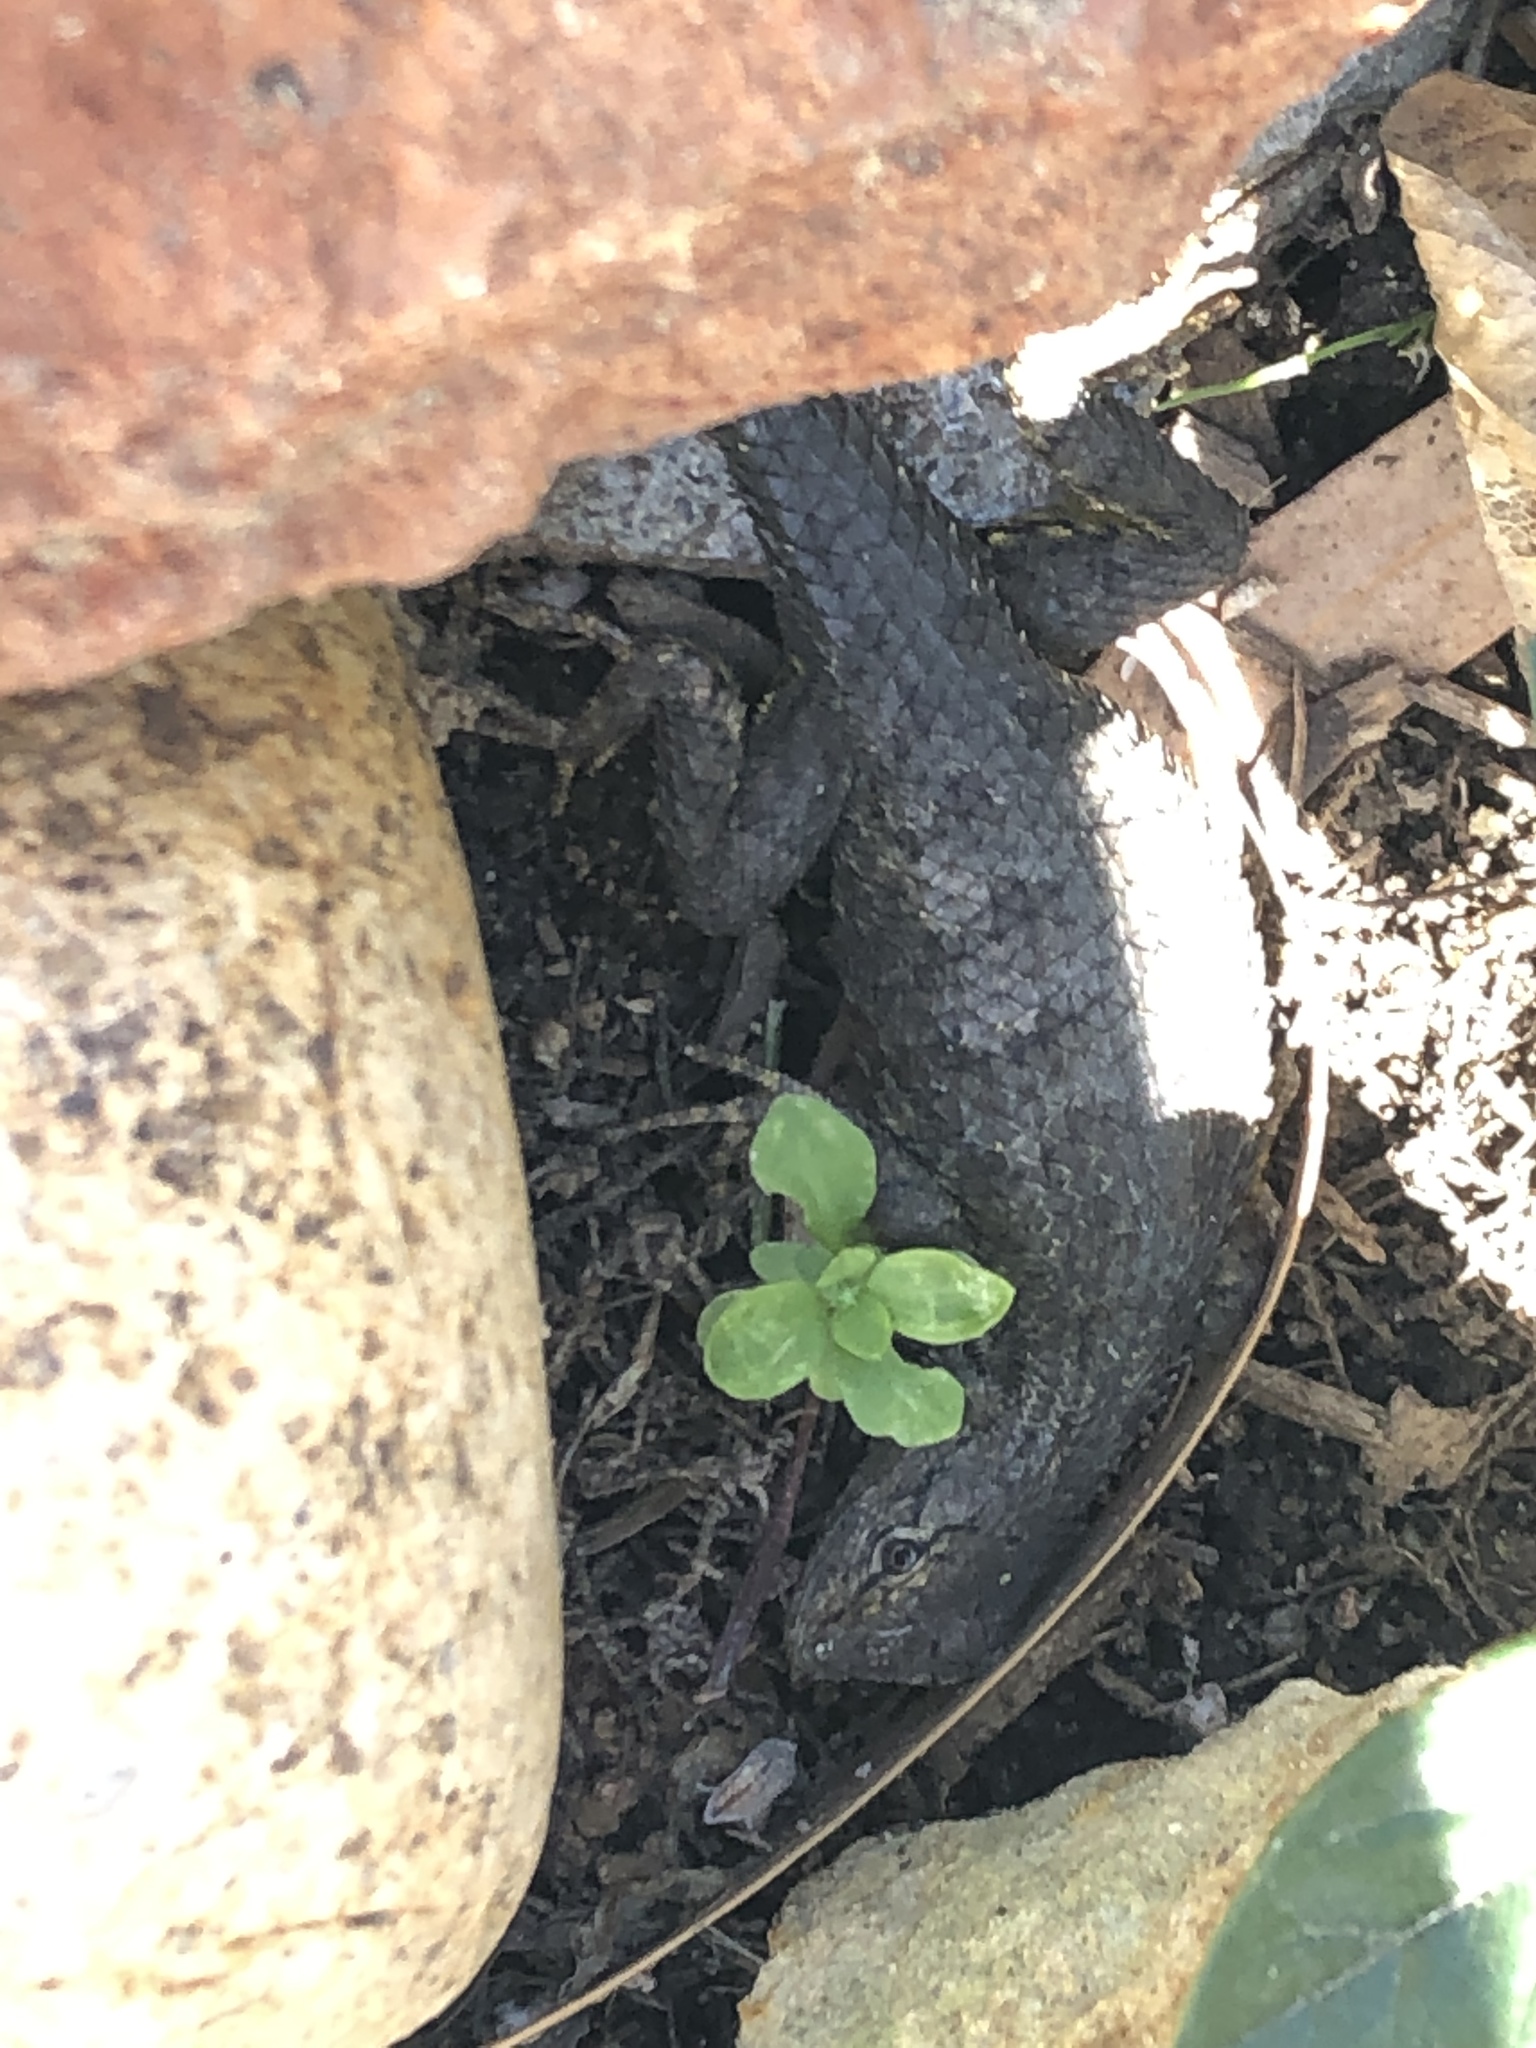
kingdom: Animalia
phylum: Chordata
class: Squamata
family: Phrynosomatidae
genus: Sceloporus
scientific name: Sceloporus occidentalis
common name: Western fence lizard
